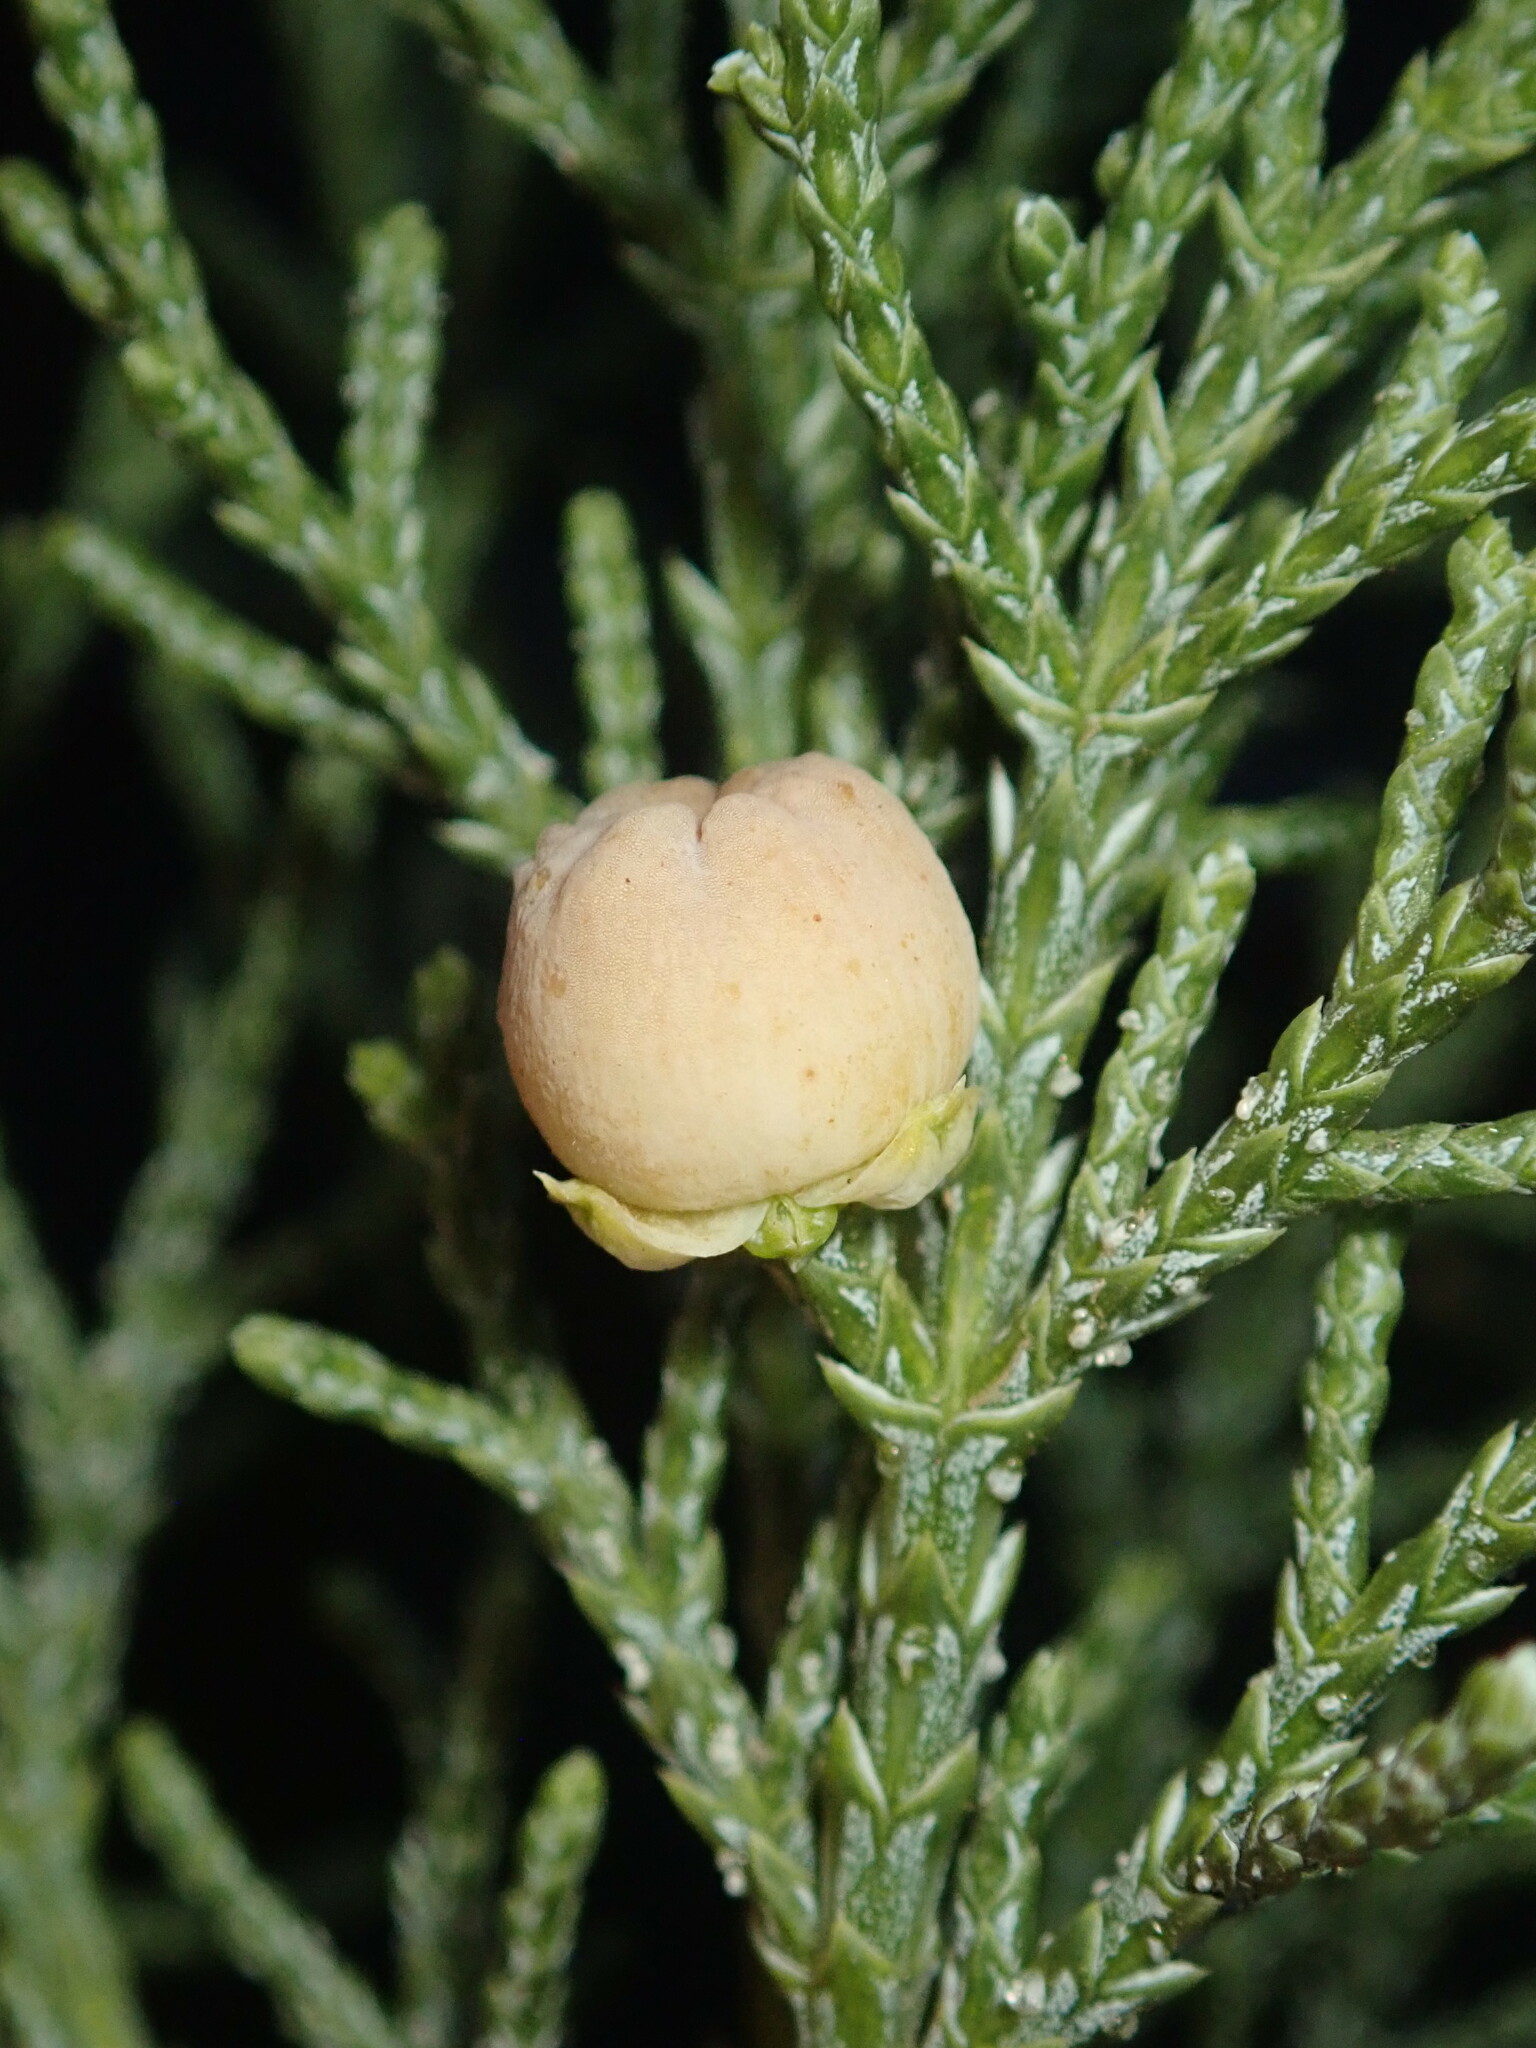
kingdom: Plantae
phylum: Tracheophyta
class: Pinopsida
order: Pinales
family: Cupressaceae
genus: Juniperus
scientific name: Juniperus deppeana
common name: Alligator juniper
